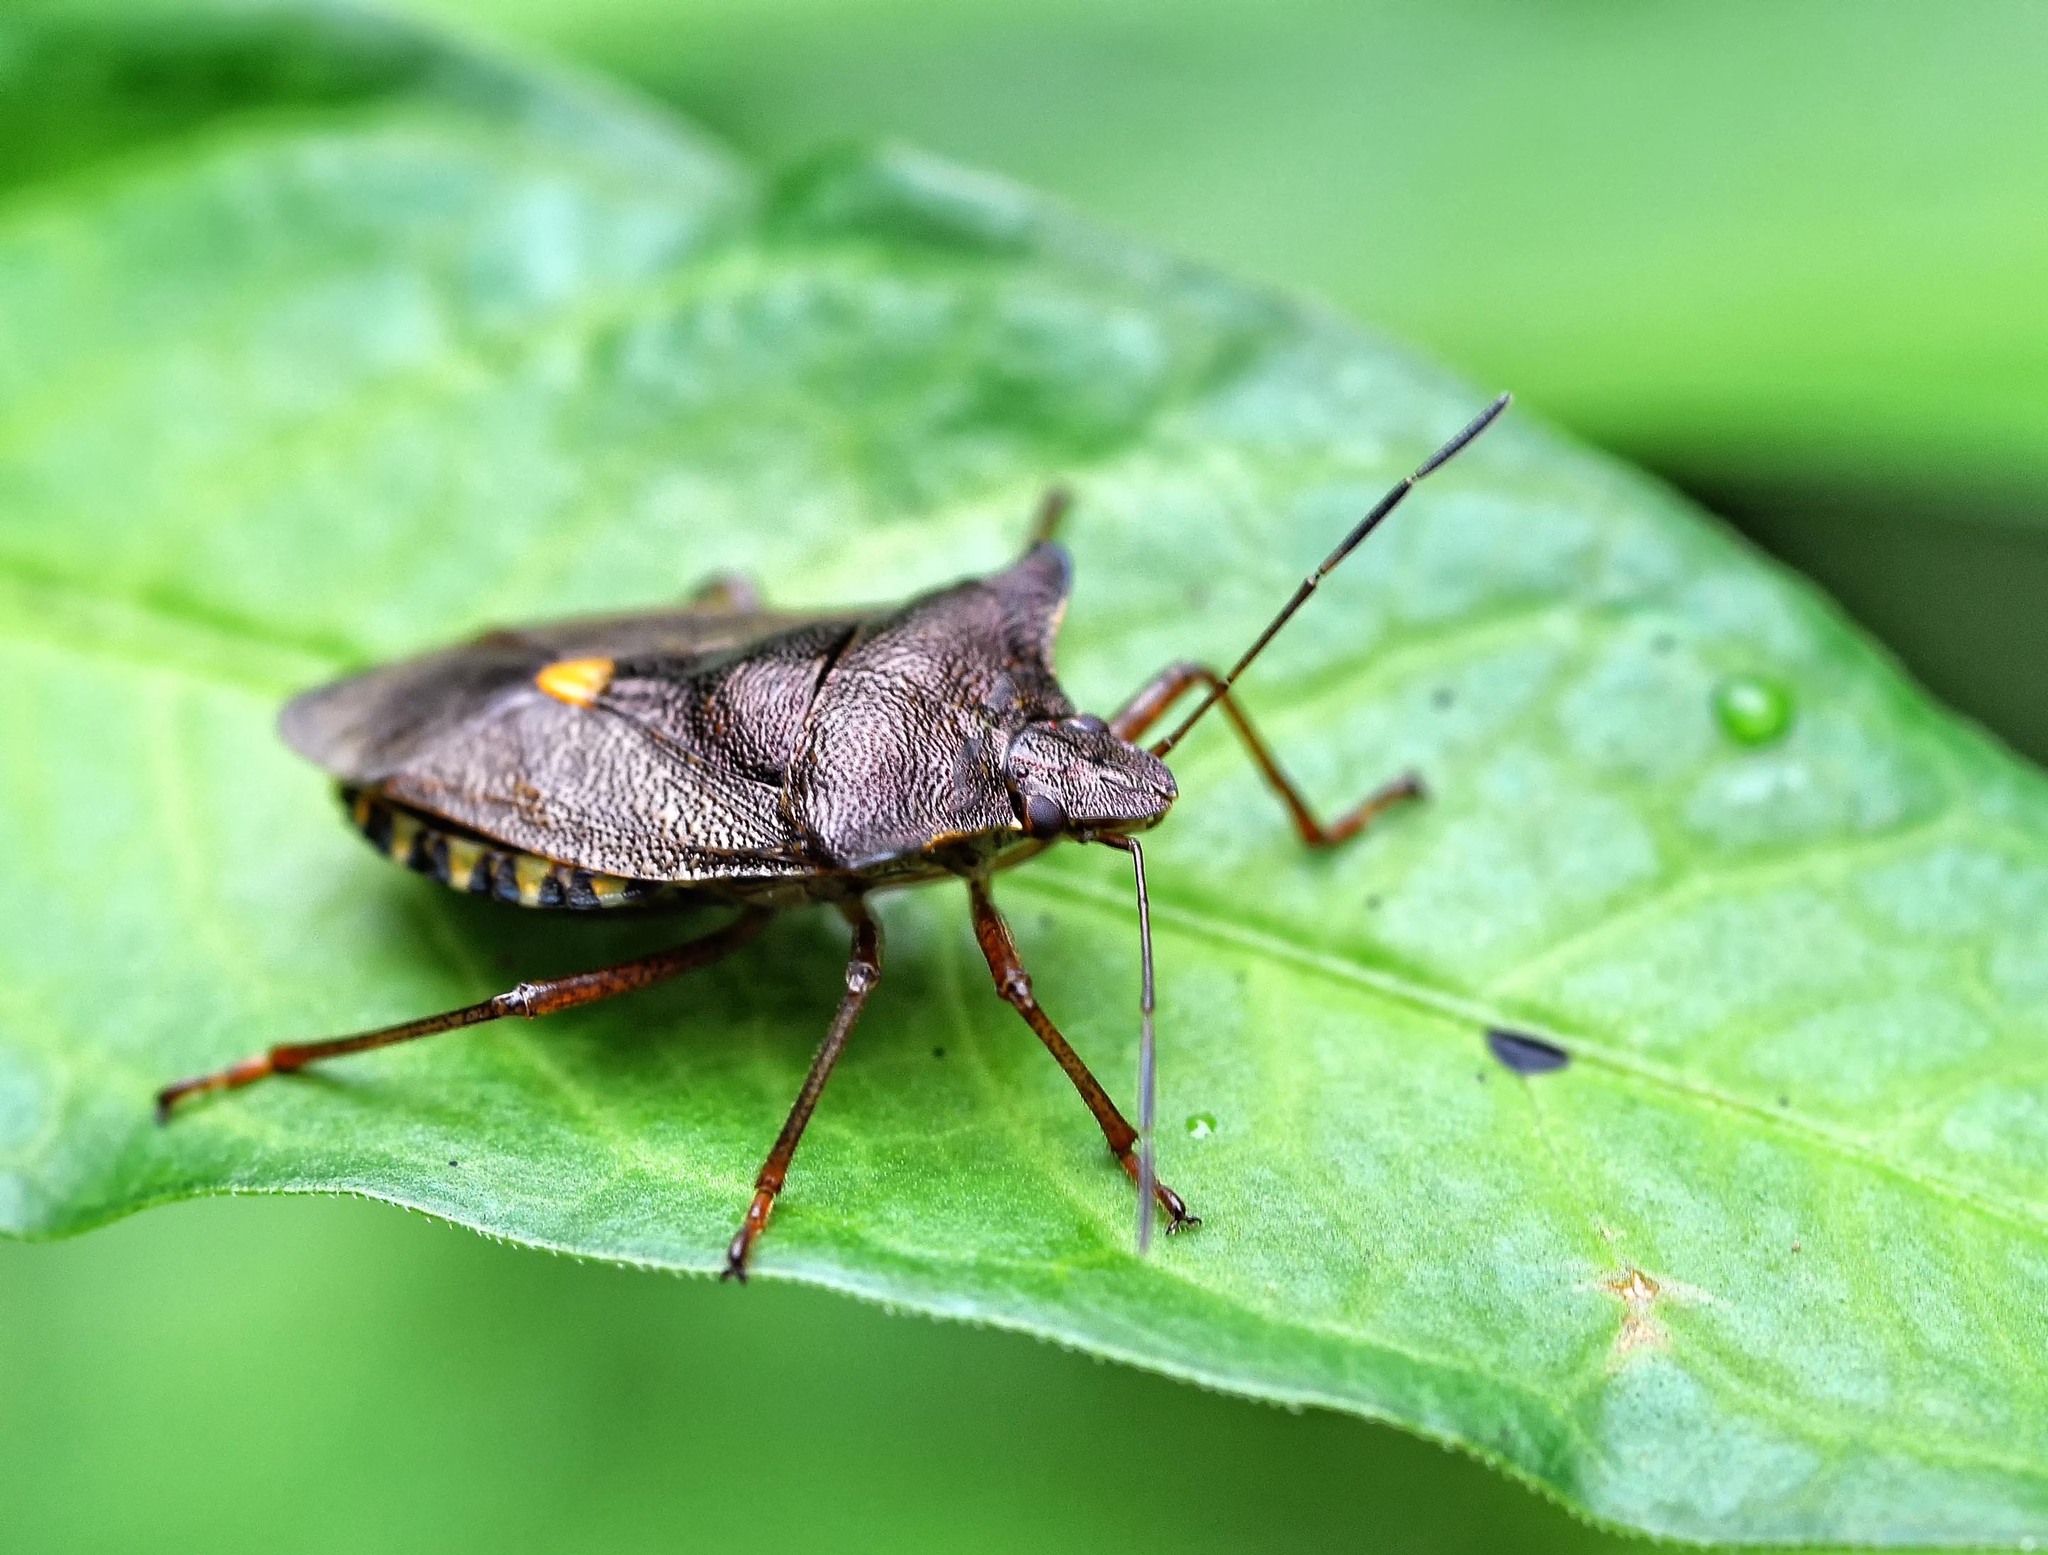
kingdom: Animalia
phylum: Arthropoda
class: Insecta
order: Hemiptera
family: Pentatomidae
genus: Pentatoma
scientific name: Pentatoma rufipes
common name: Forest bug
